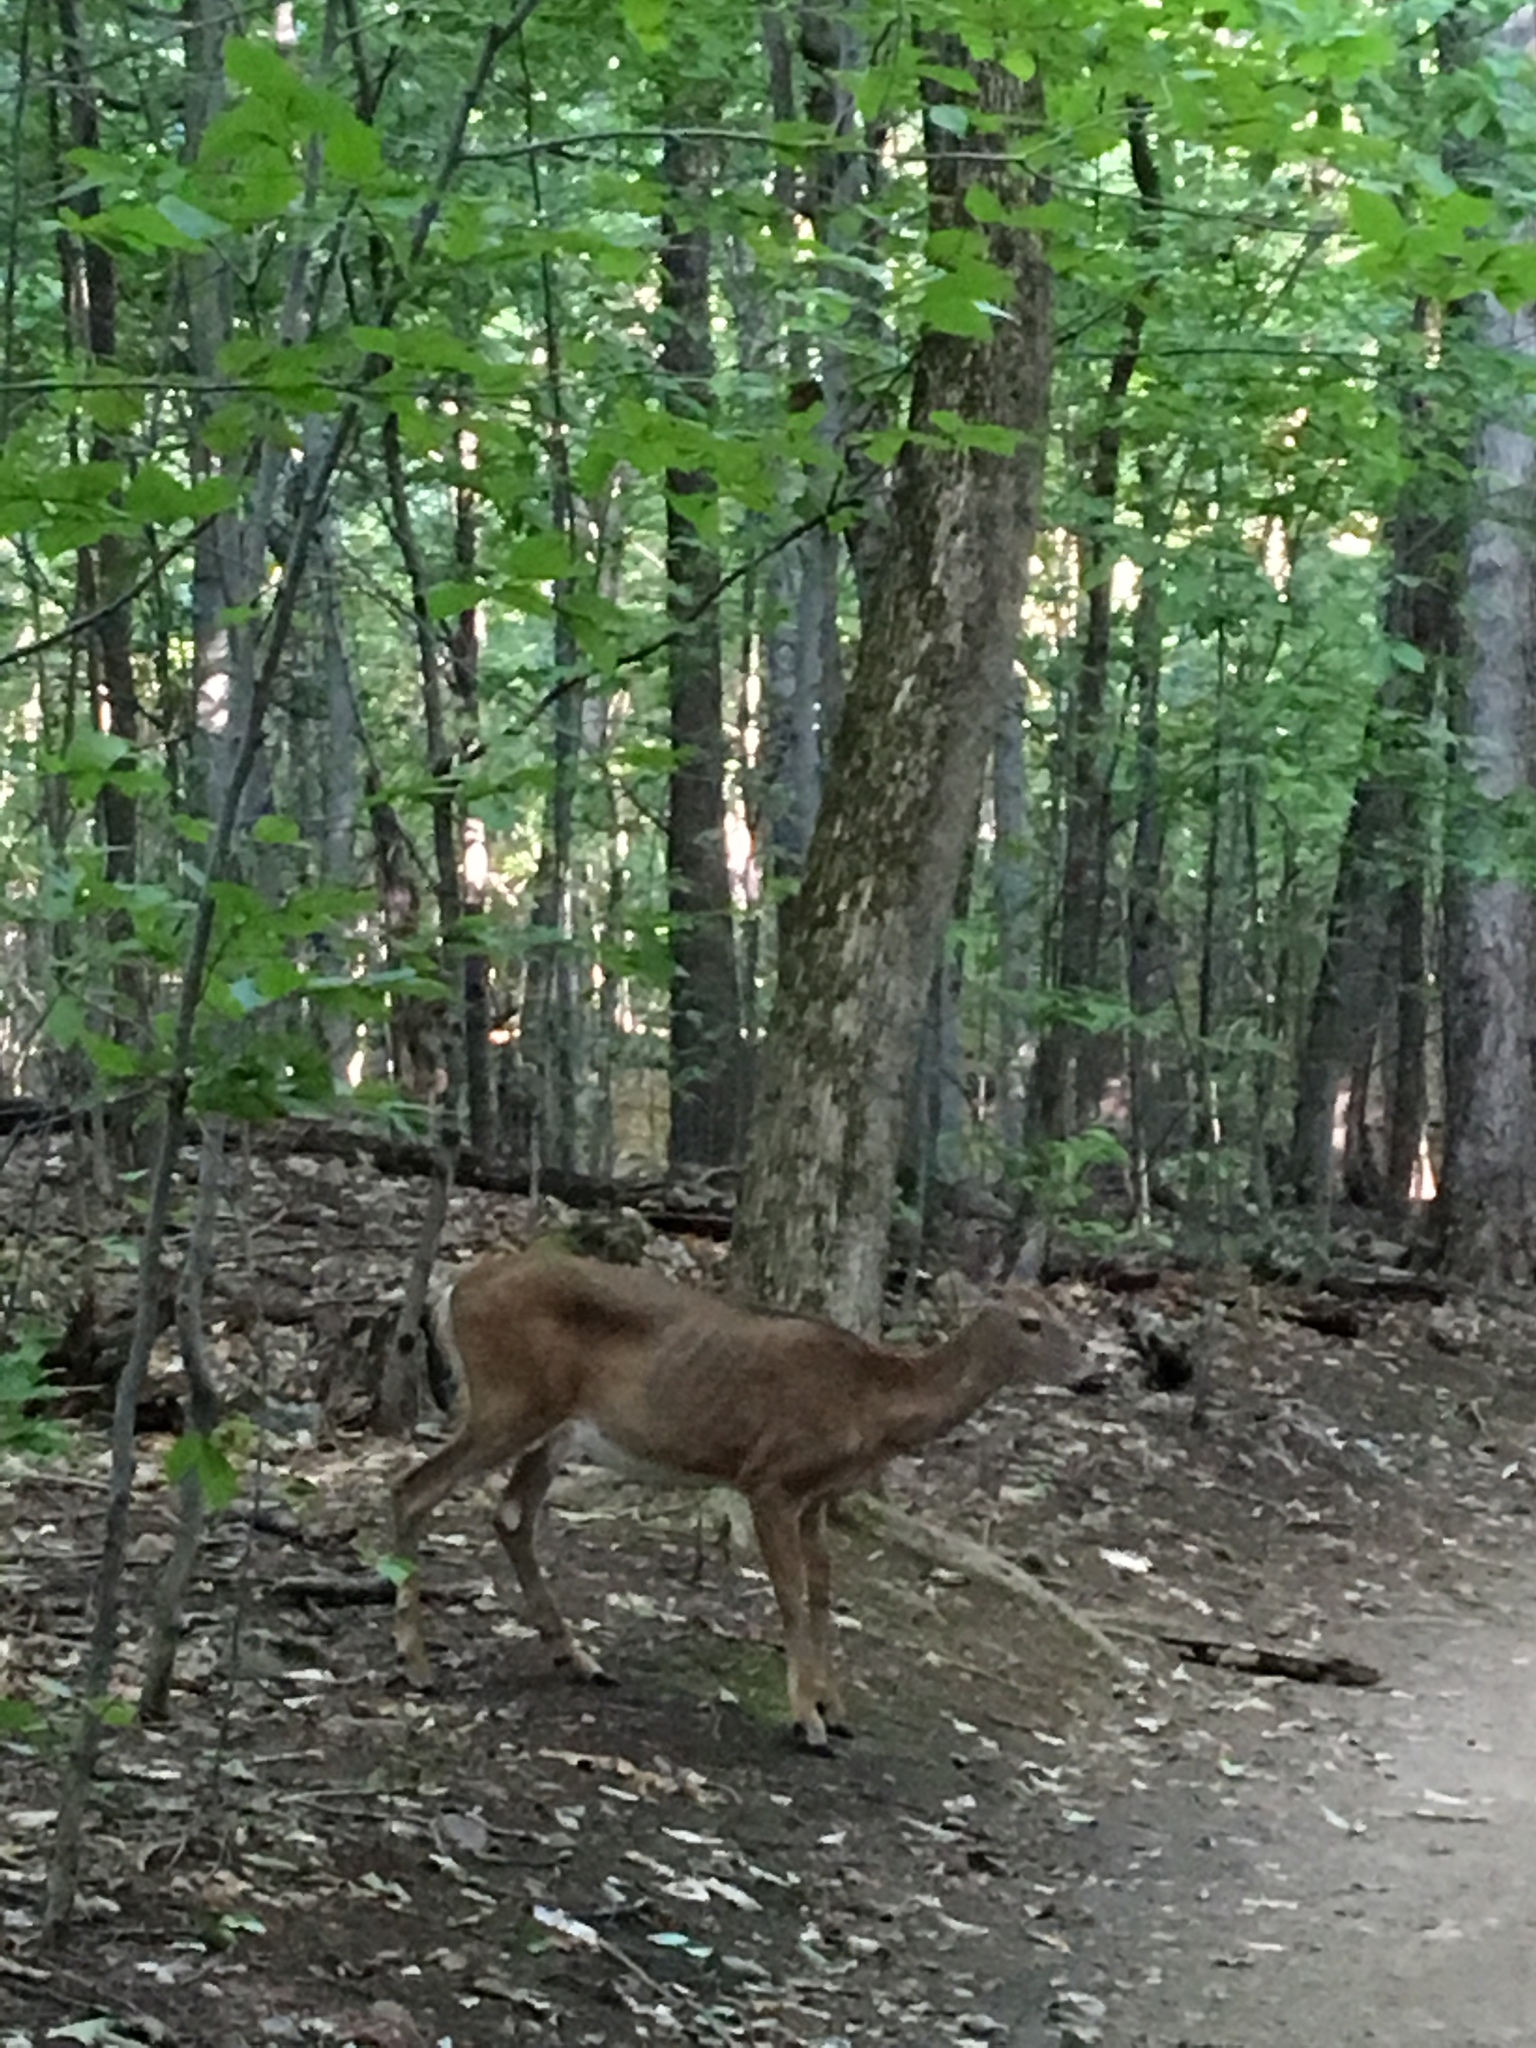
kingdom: Animalia
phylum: Chordata
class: Mammalia
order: Artiodactyla
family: Cervidae
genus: Odocoileus
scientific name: Odocoileus virginianus
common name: White-tailed deer
